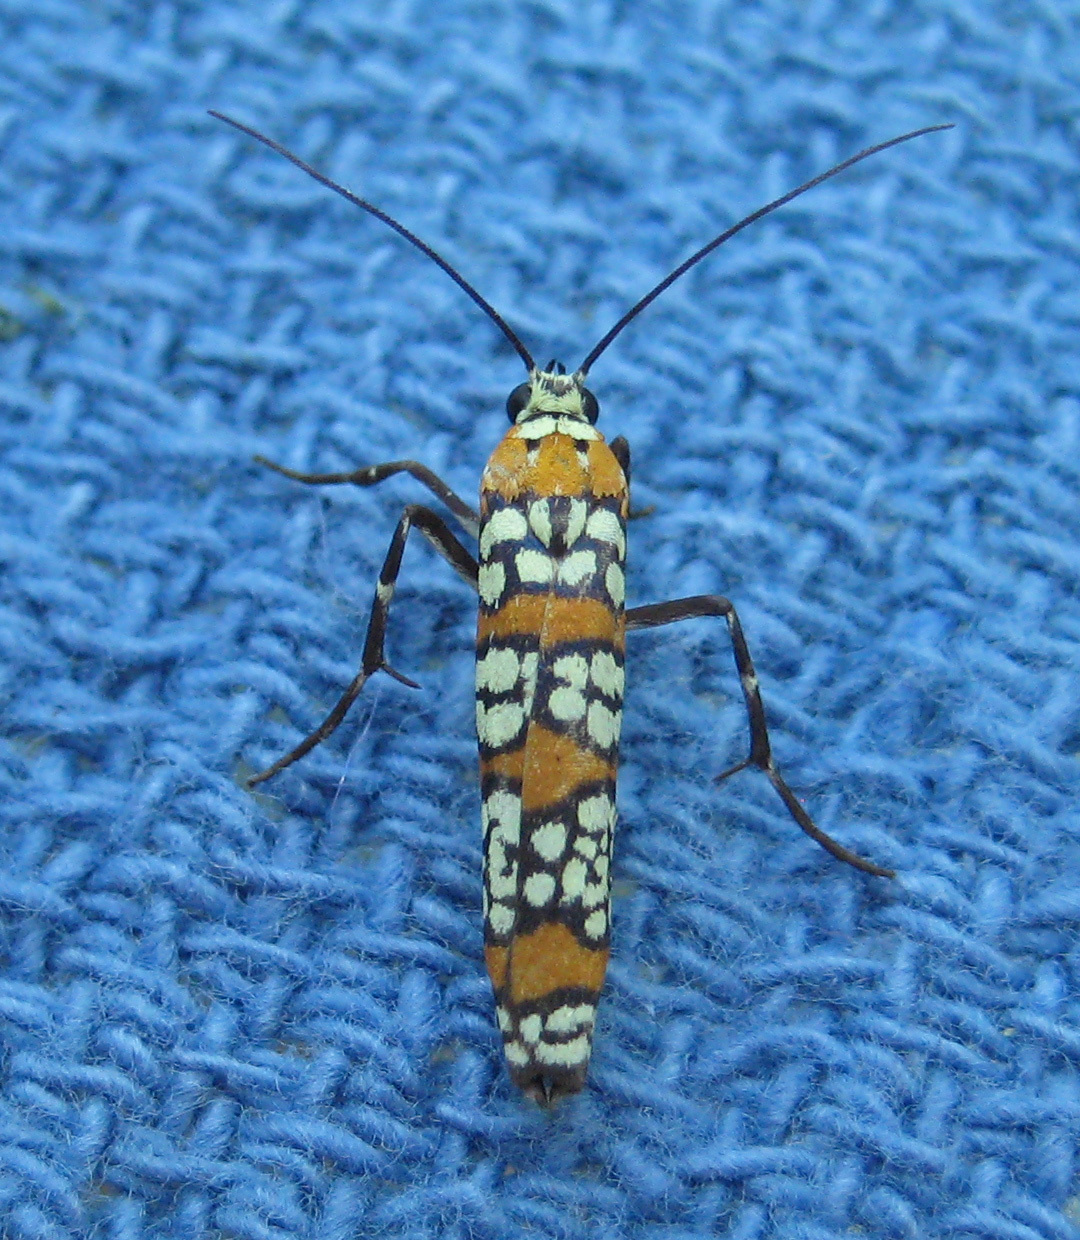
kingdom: Animalia
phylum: Arthropoda
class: Insecta
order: Lepidoptera
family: Attevidae
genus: Atteva
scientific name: Atteva punctella
